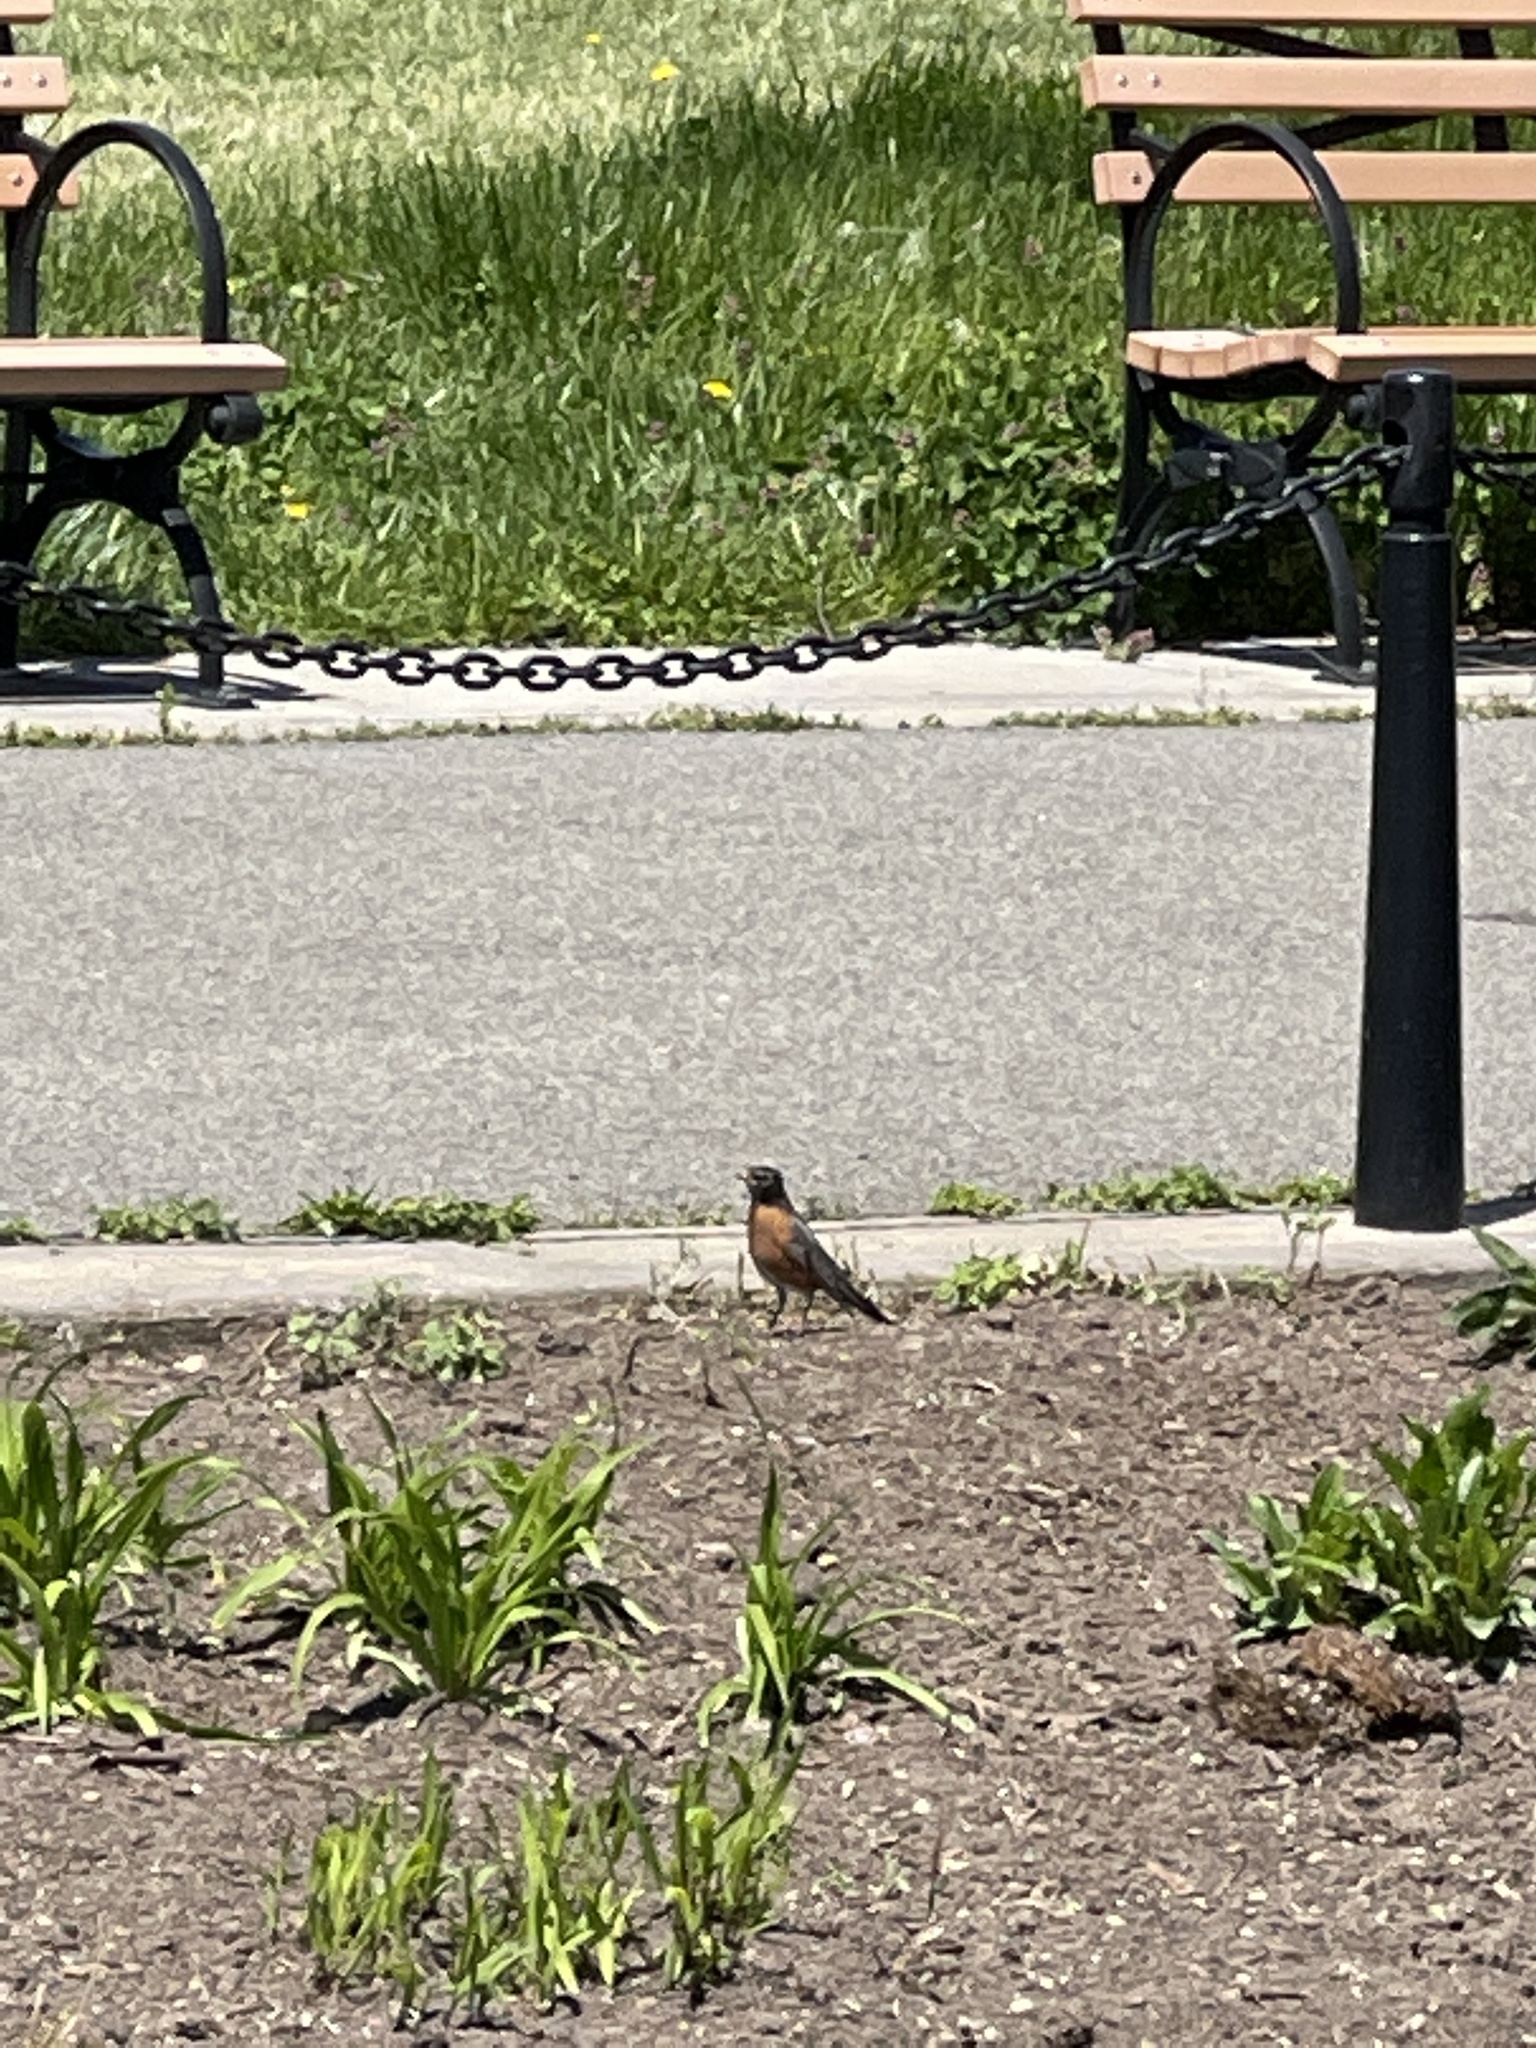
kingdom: Animalia
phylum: Chordata
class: Aves
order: Passeriformes
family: Turdidae
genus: Turdus
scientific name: Turdus migratorius
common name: American robin
